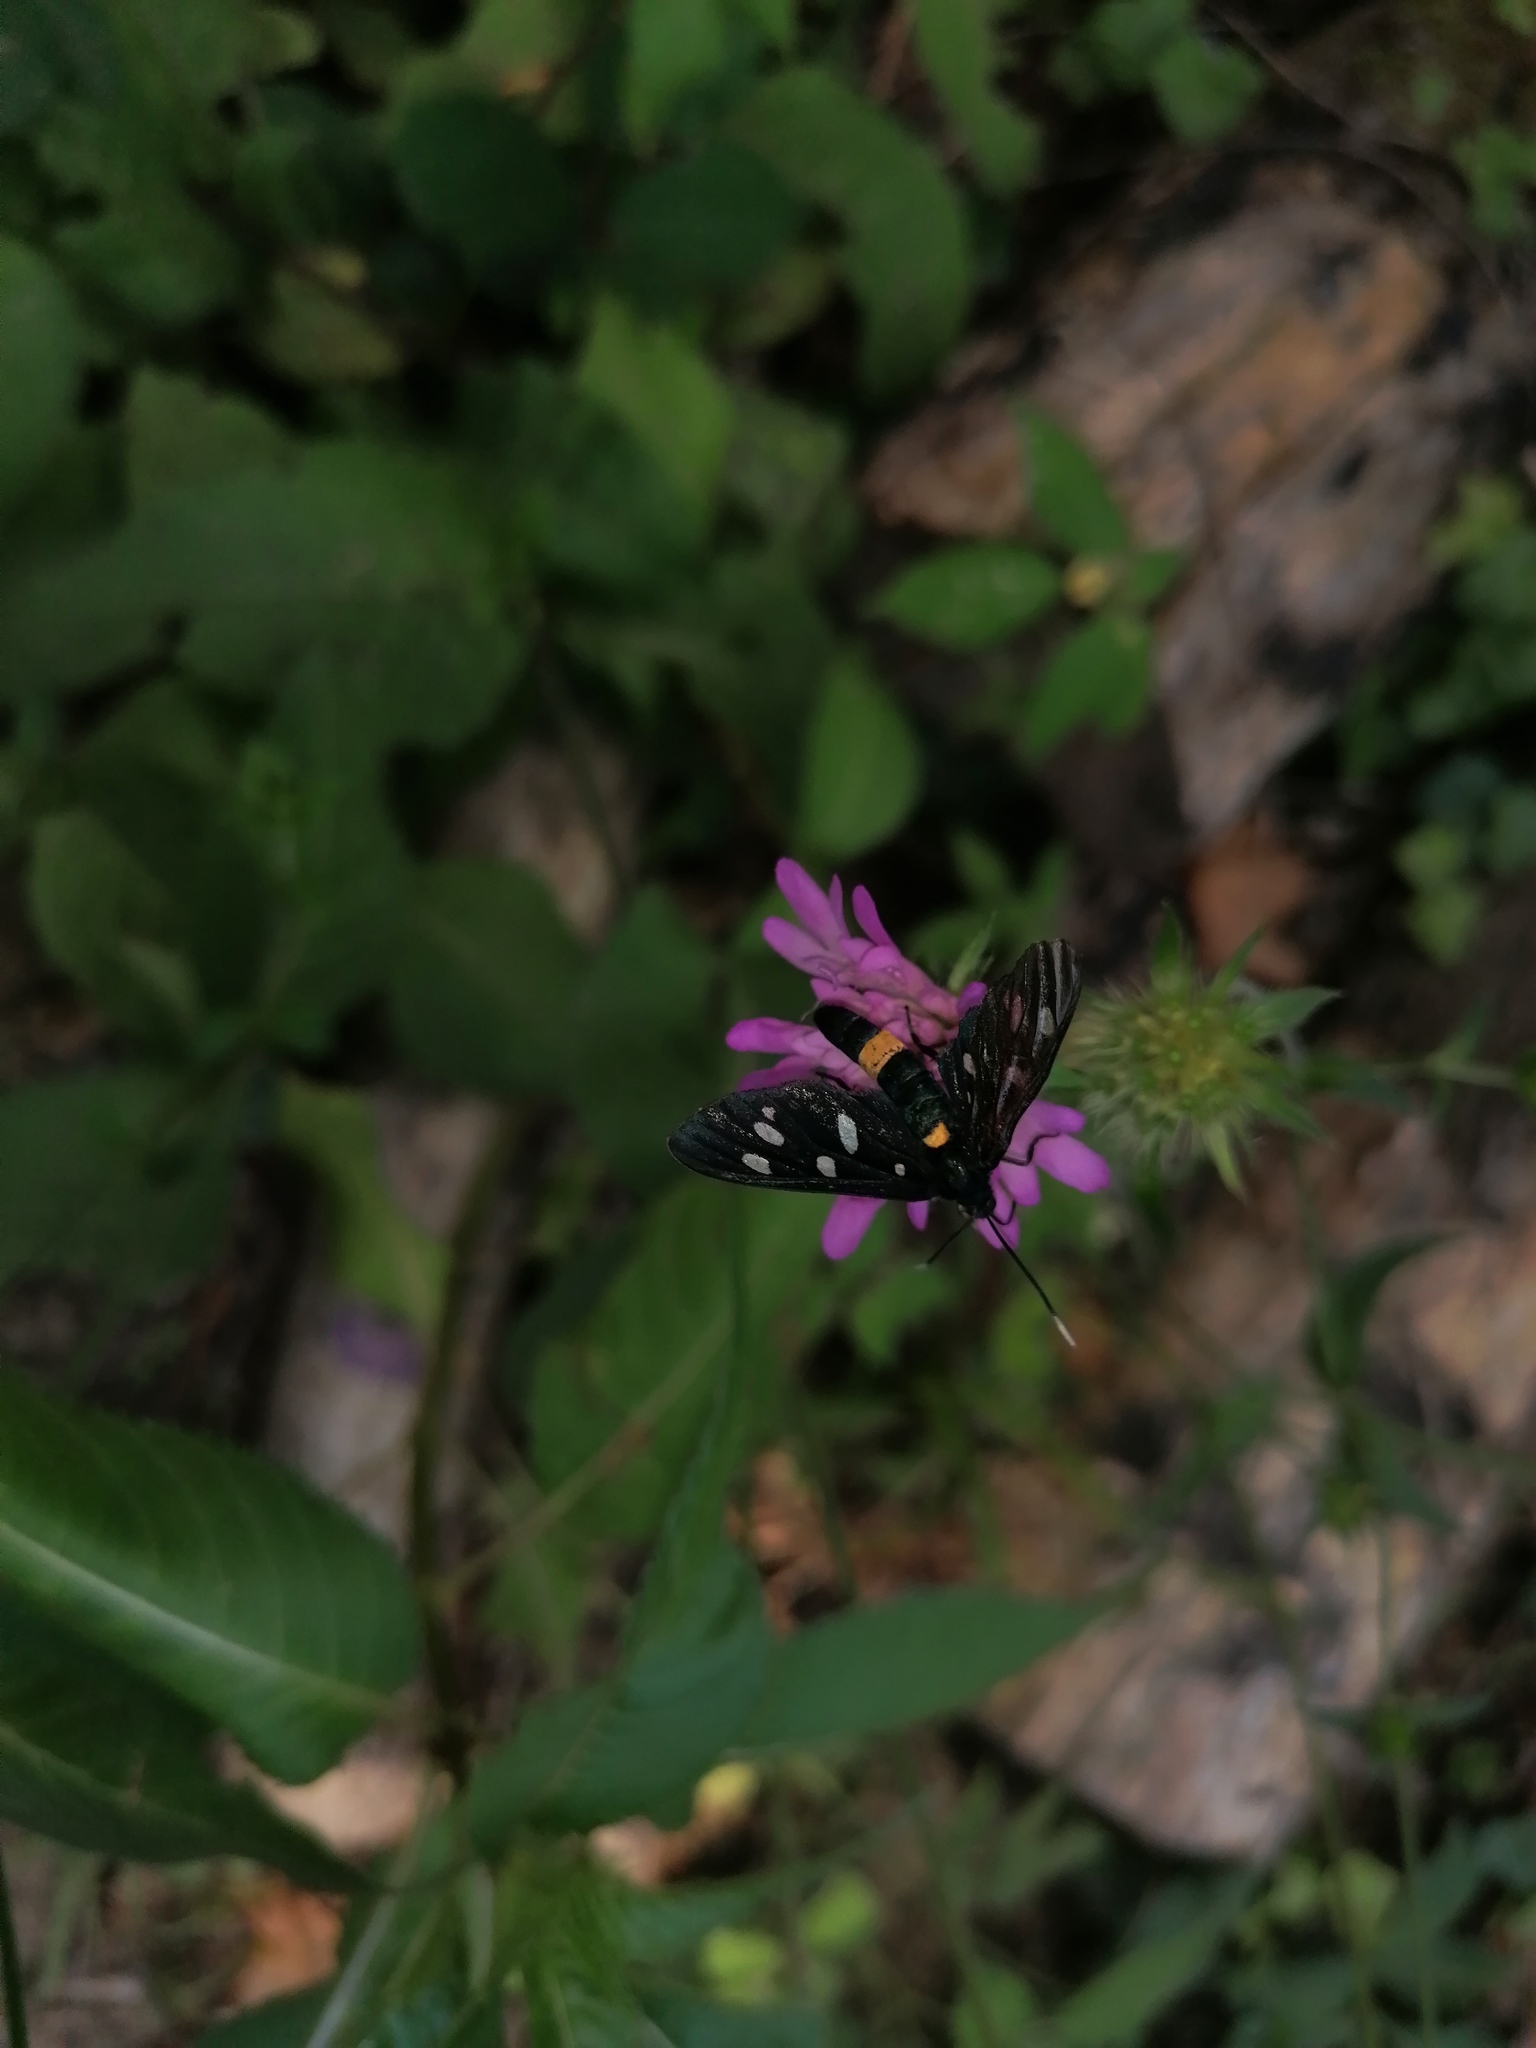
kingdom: Animalia
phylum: Arthropoda
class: Insecta
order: Lepidoptera
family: Erebidae
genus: Amata
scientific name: Amata phegea
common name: Nine-spotted
